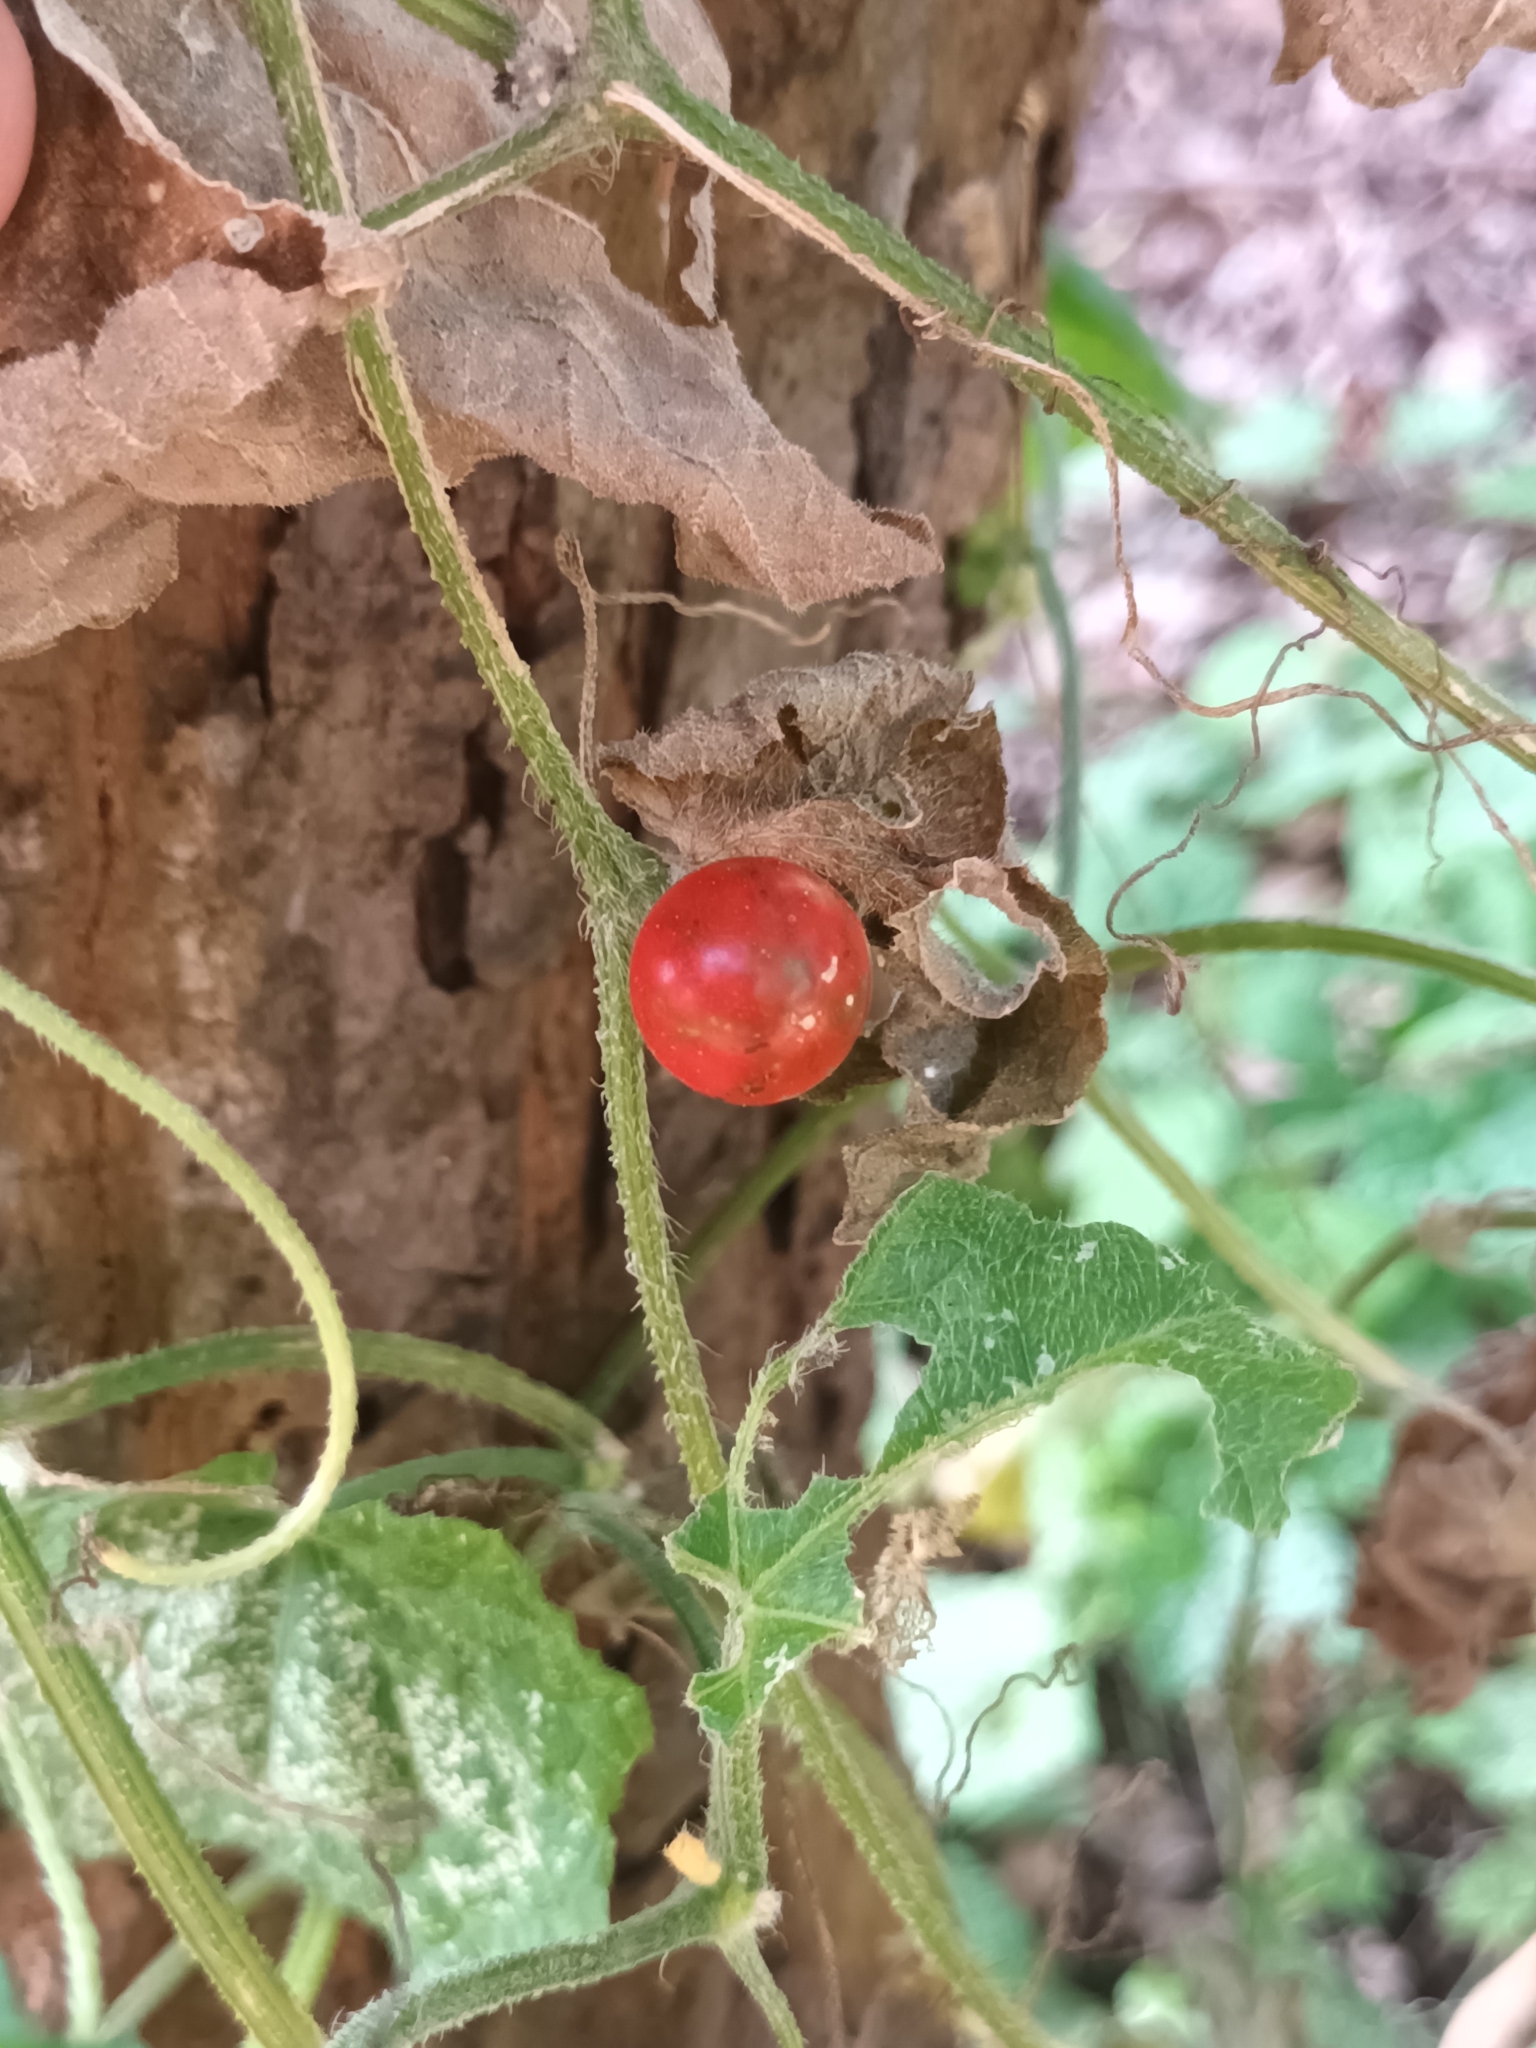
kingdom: Plantae
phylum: Tracheophyta
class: Magnoliopsida
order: Cucurbitales
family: Cucurbitaceae
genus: Cucumis
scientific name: Cucumis maderaspatanus
